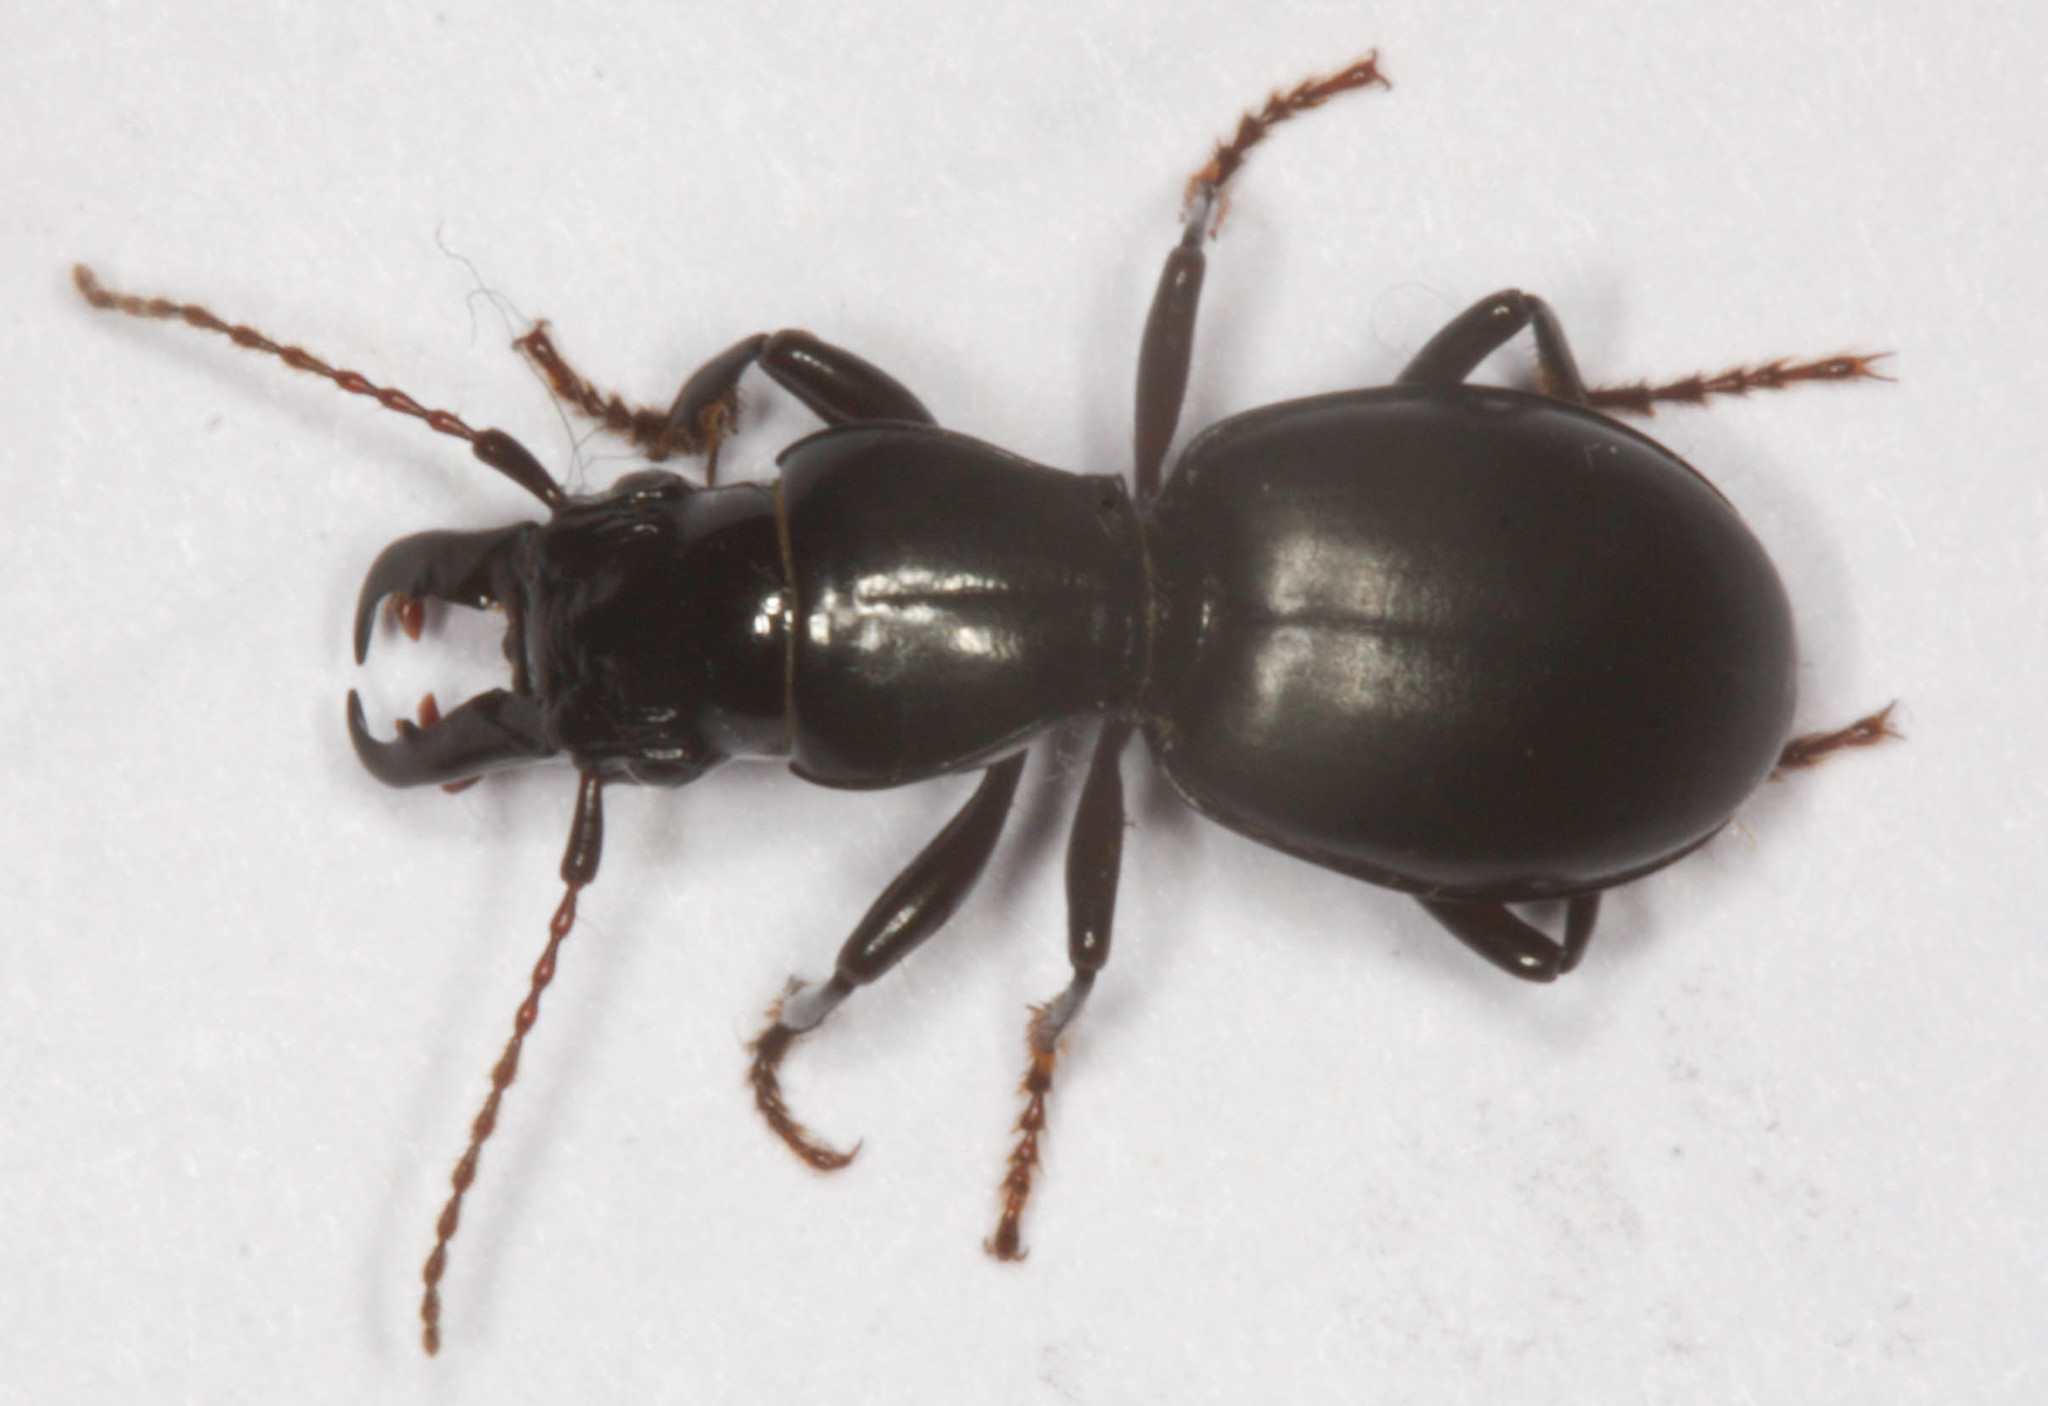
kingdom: Animalia
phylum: Arthropoda
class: Insecta
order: Coleoptera
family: Carabidae
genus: Promecognathus
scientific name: Promecognathus crassus
